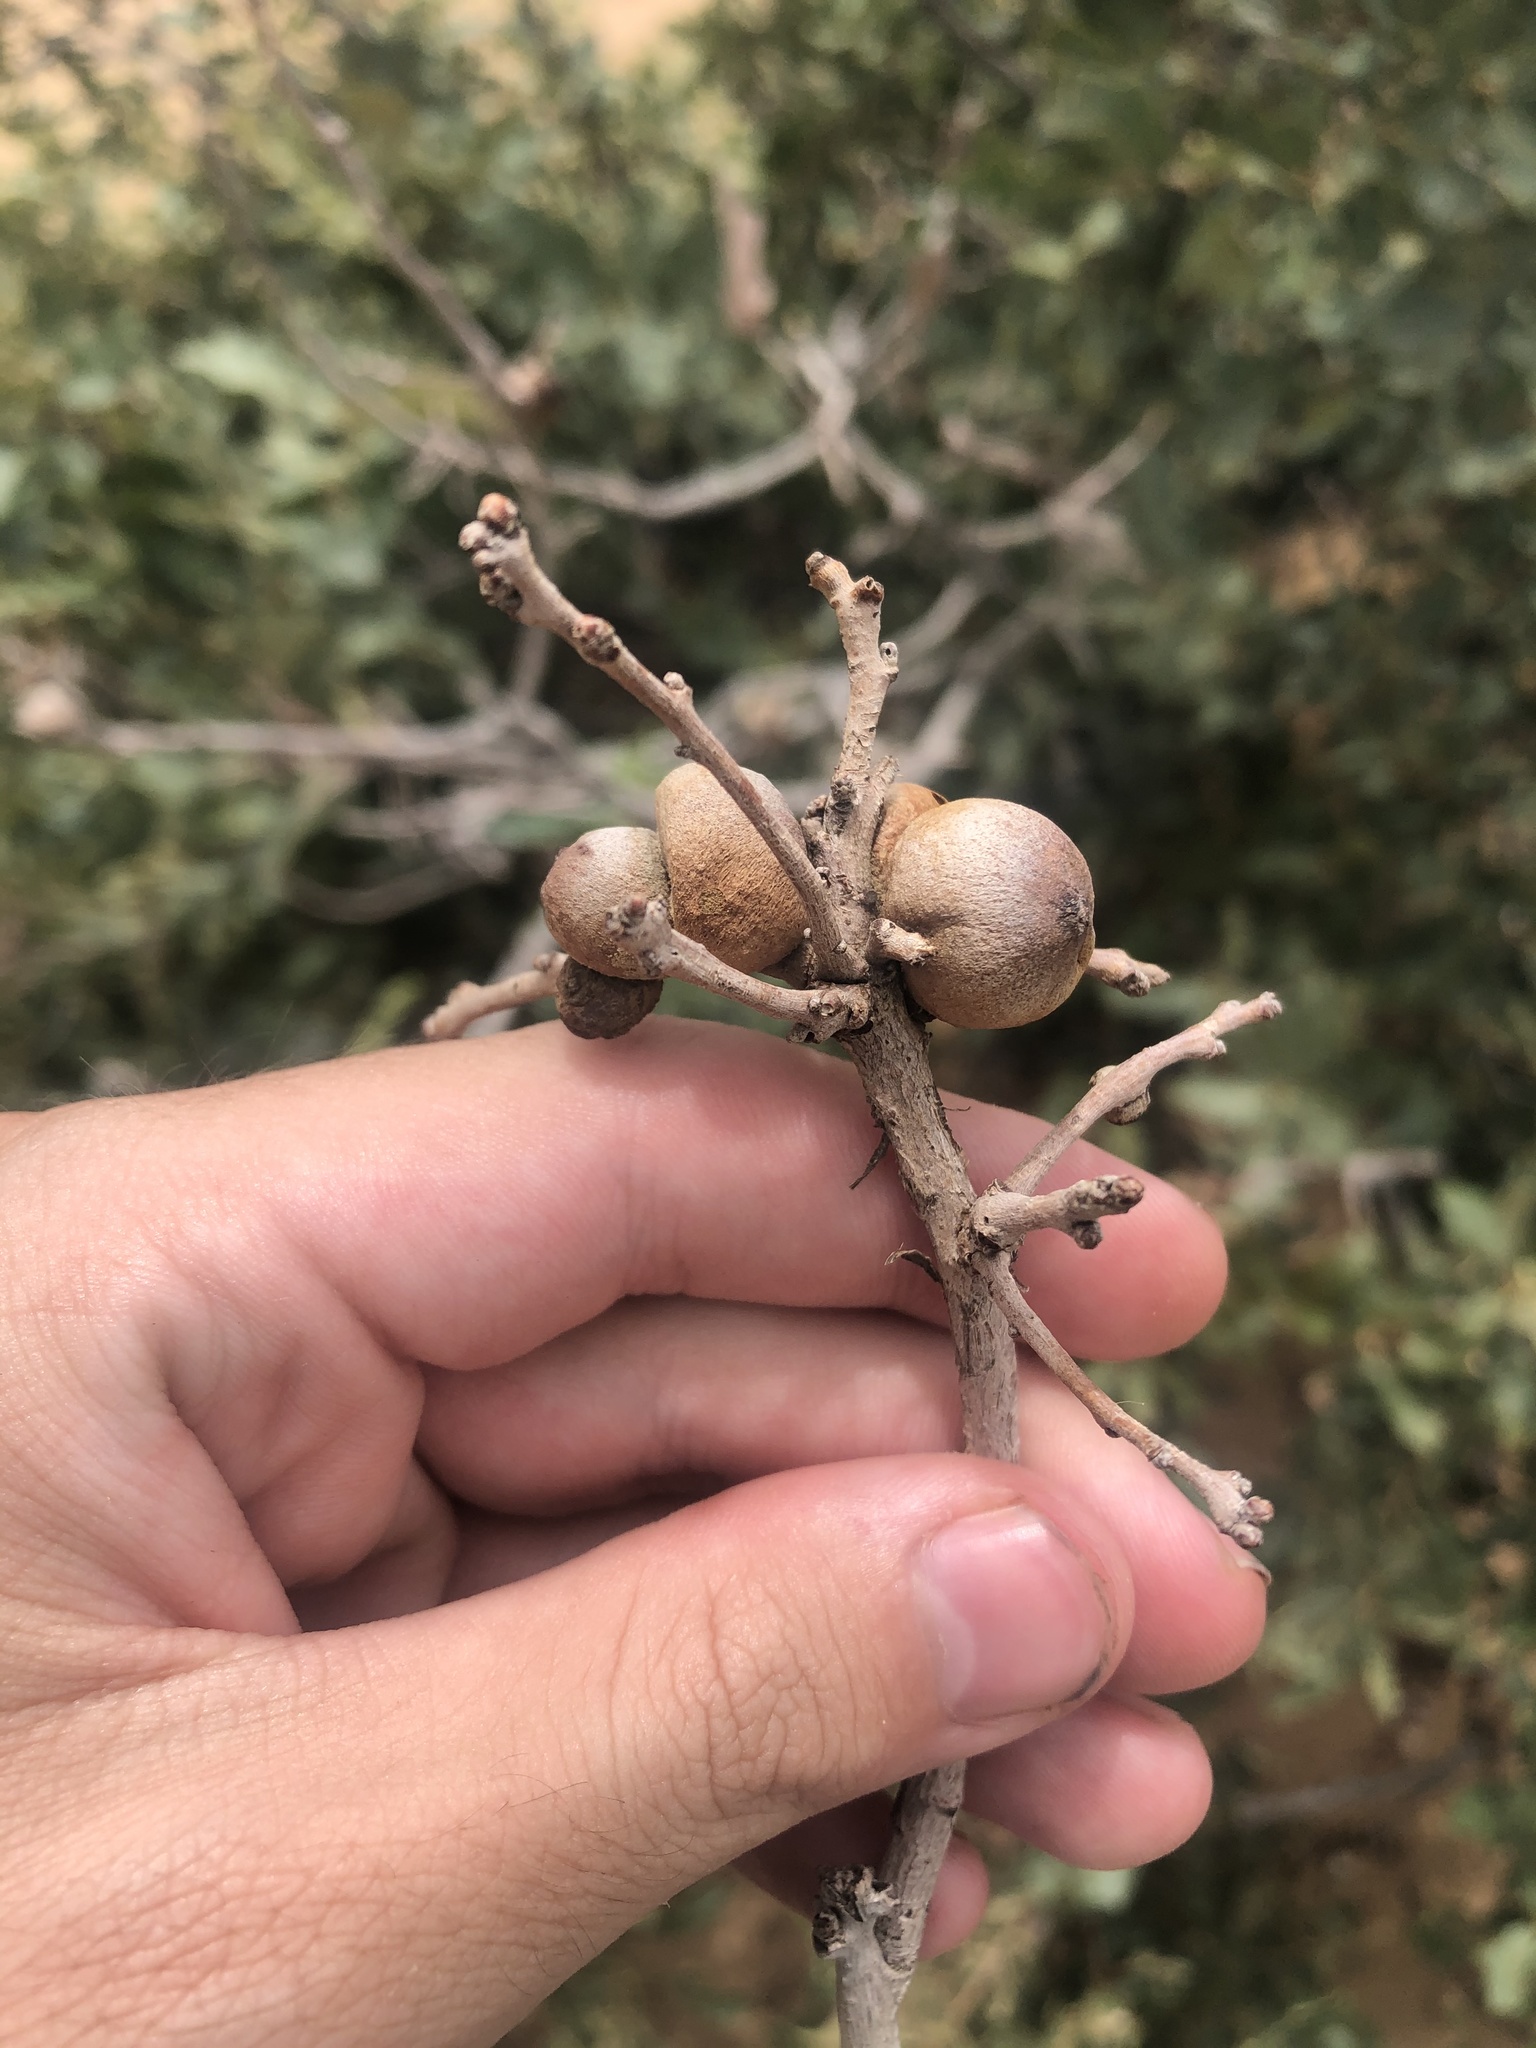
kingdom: Animalia
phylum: Arthropoda
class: Insecta
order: Hymenoptera
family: Cynipidae
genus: Disholcaspis
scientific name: Disholcaspis erugomamma
